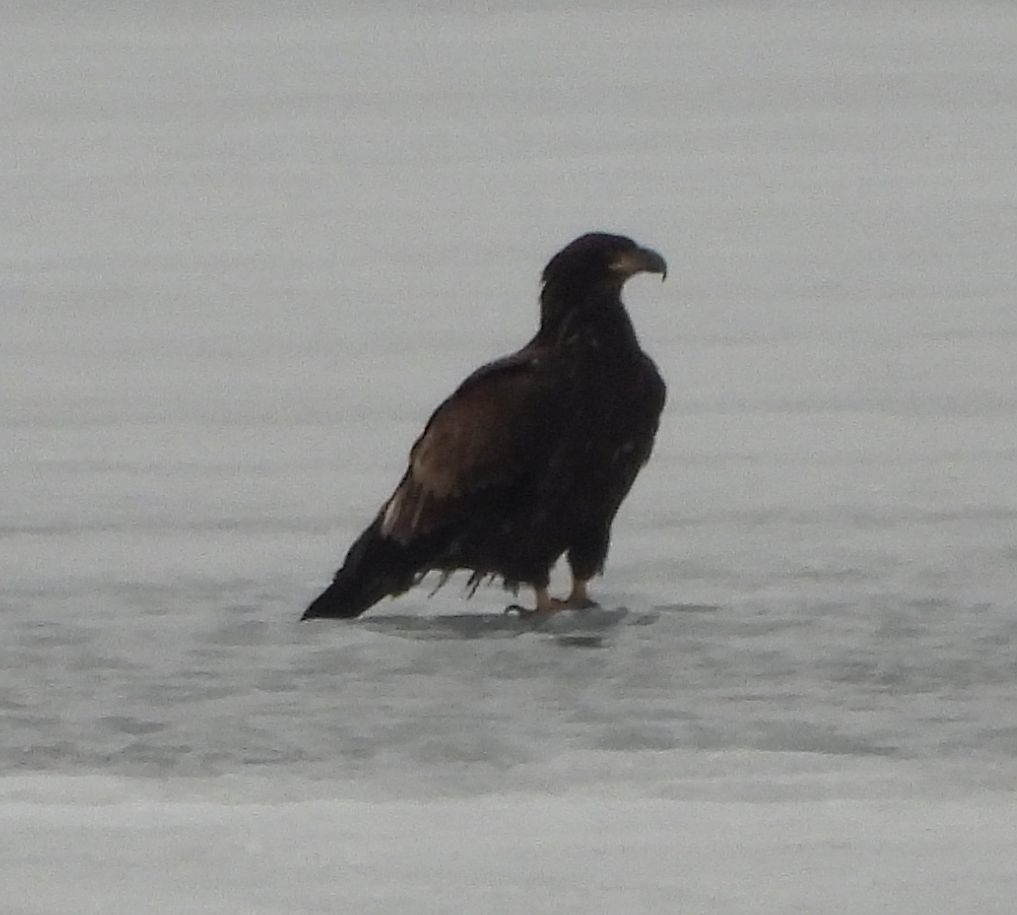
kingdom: Animalia
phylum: Chordata
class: Aves
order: Accipitriformes
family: Accipitridae
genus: Haliaeetus
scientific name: Haliaeetus leucocephalus
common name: Bald eagle
